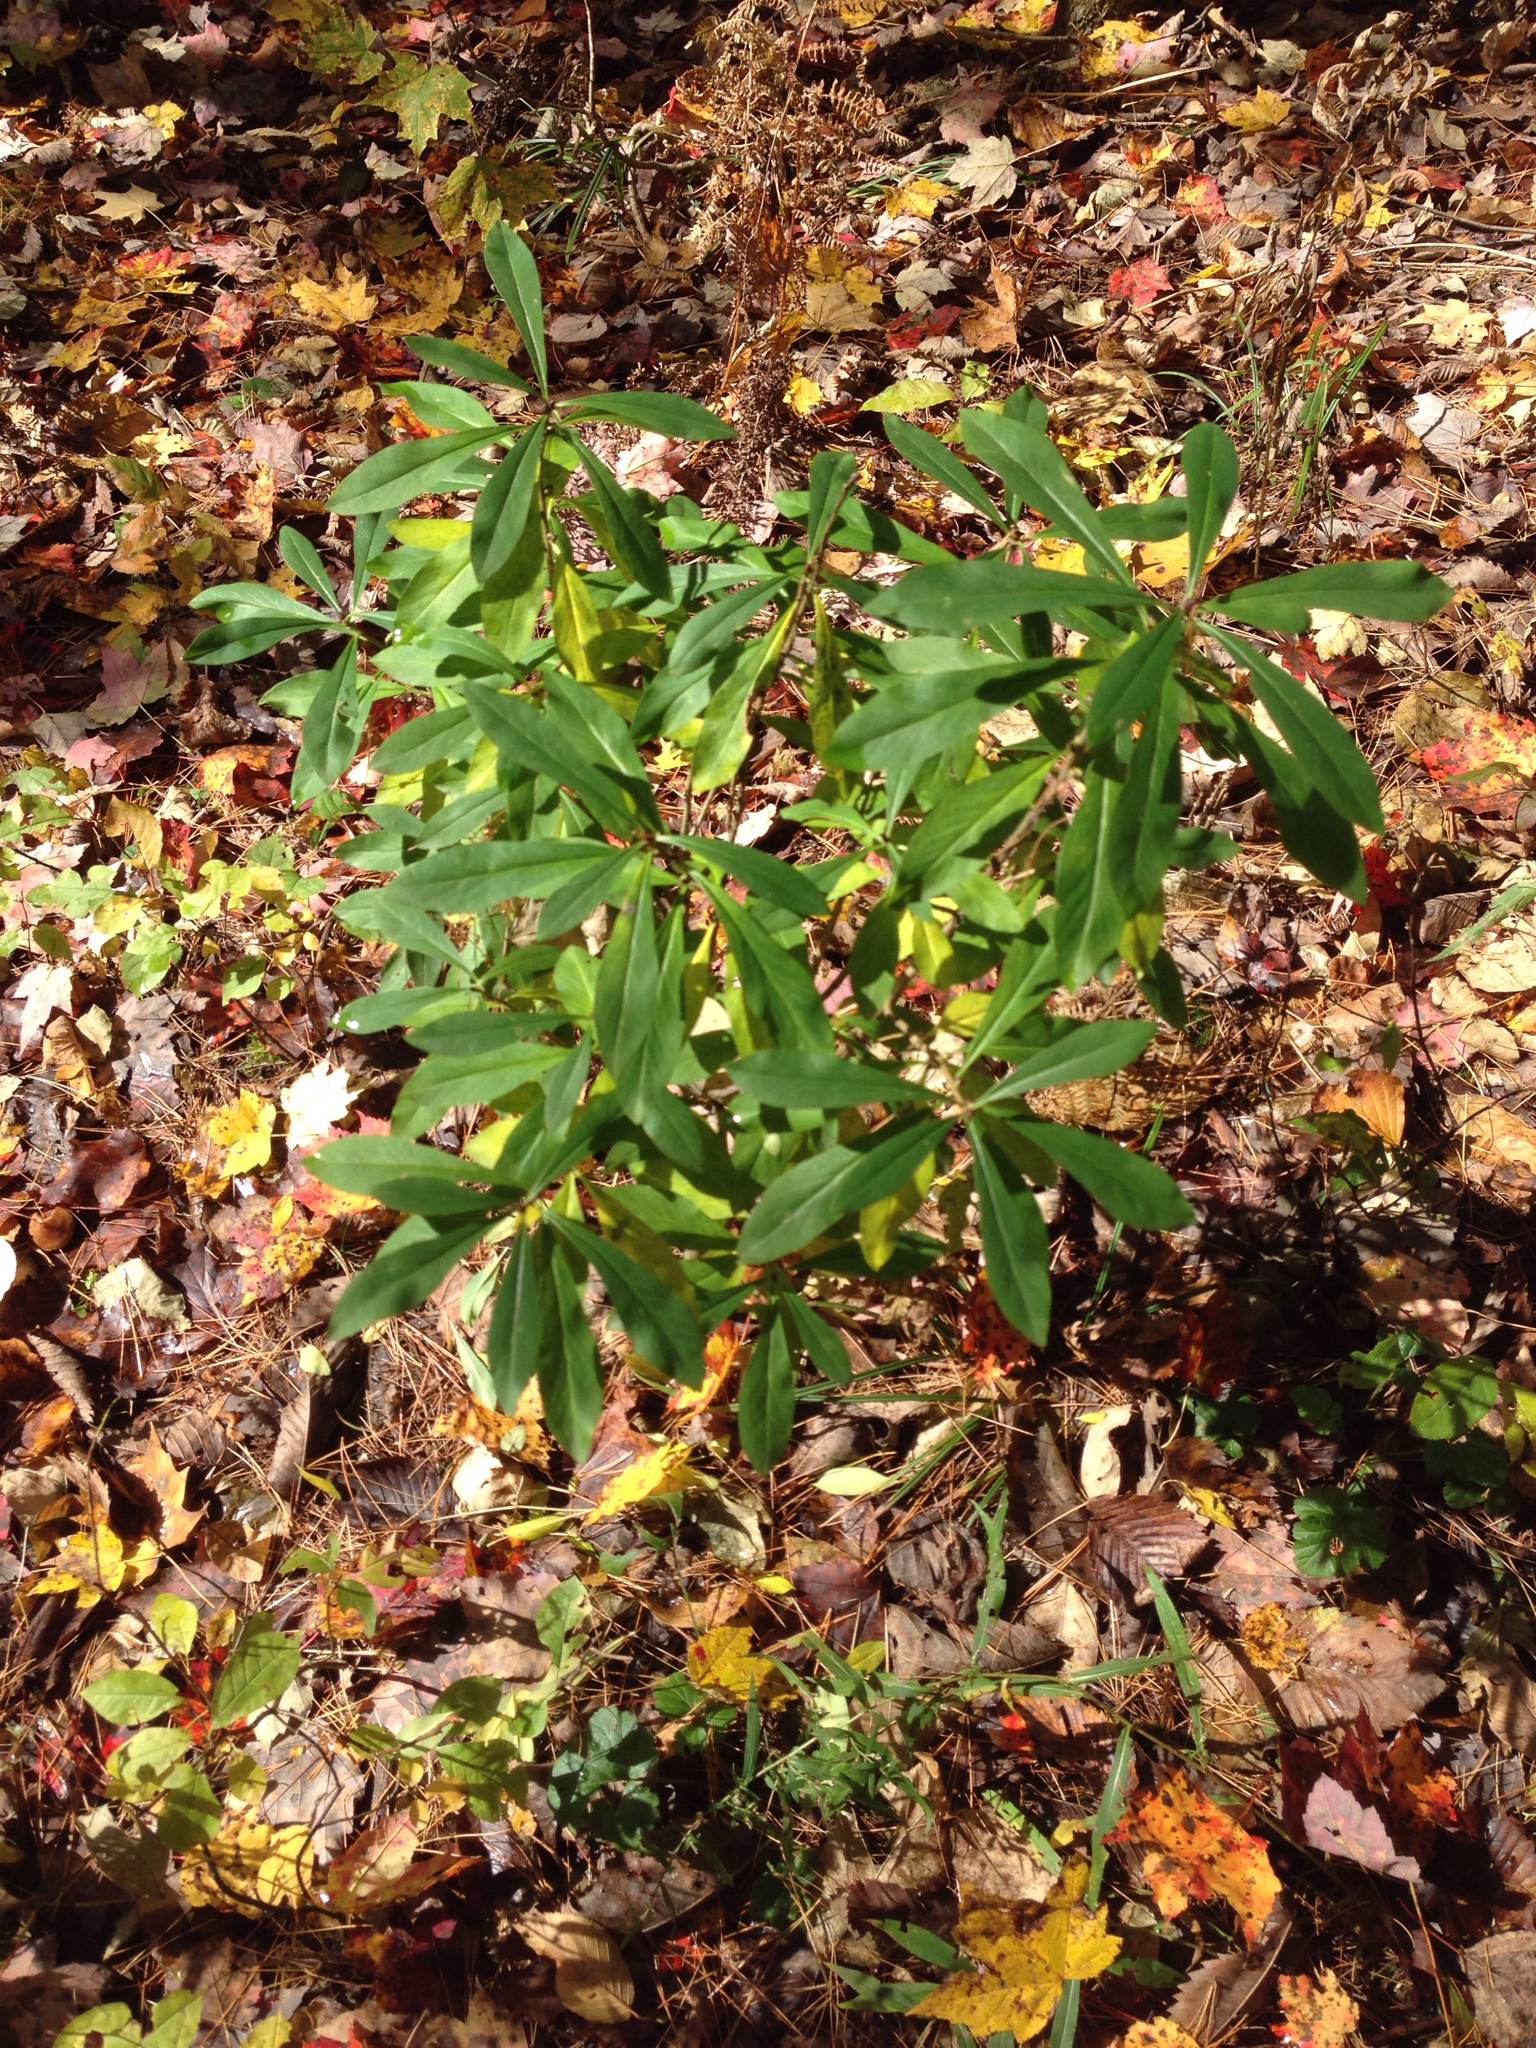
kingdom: Plantae
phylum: Tracheophyta
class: Magnoliopsida
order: Malvales
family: Thymelaeaceae
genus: Daphne
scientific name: Daphne mezereum
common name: Mezereon
